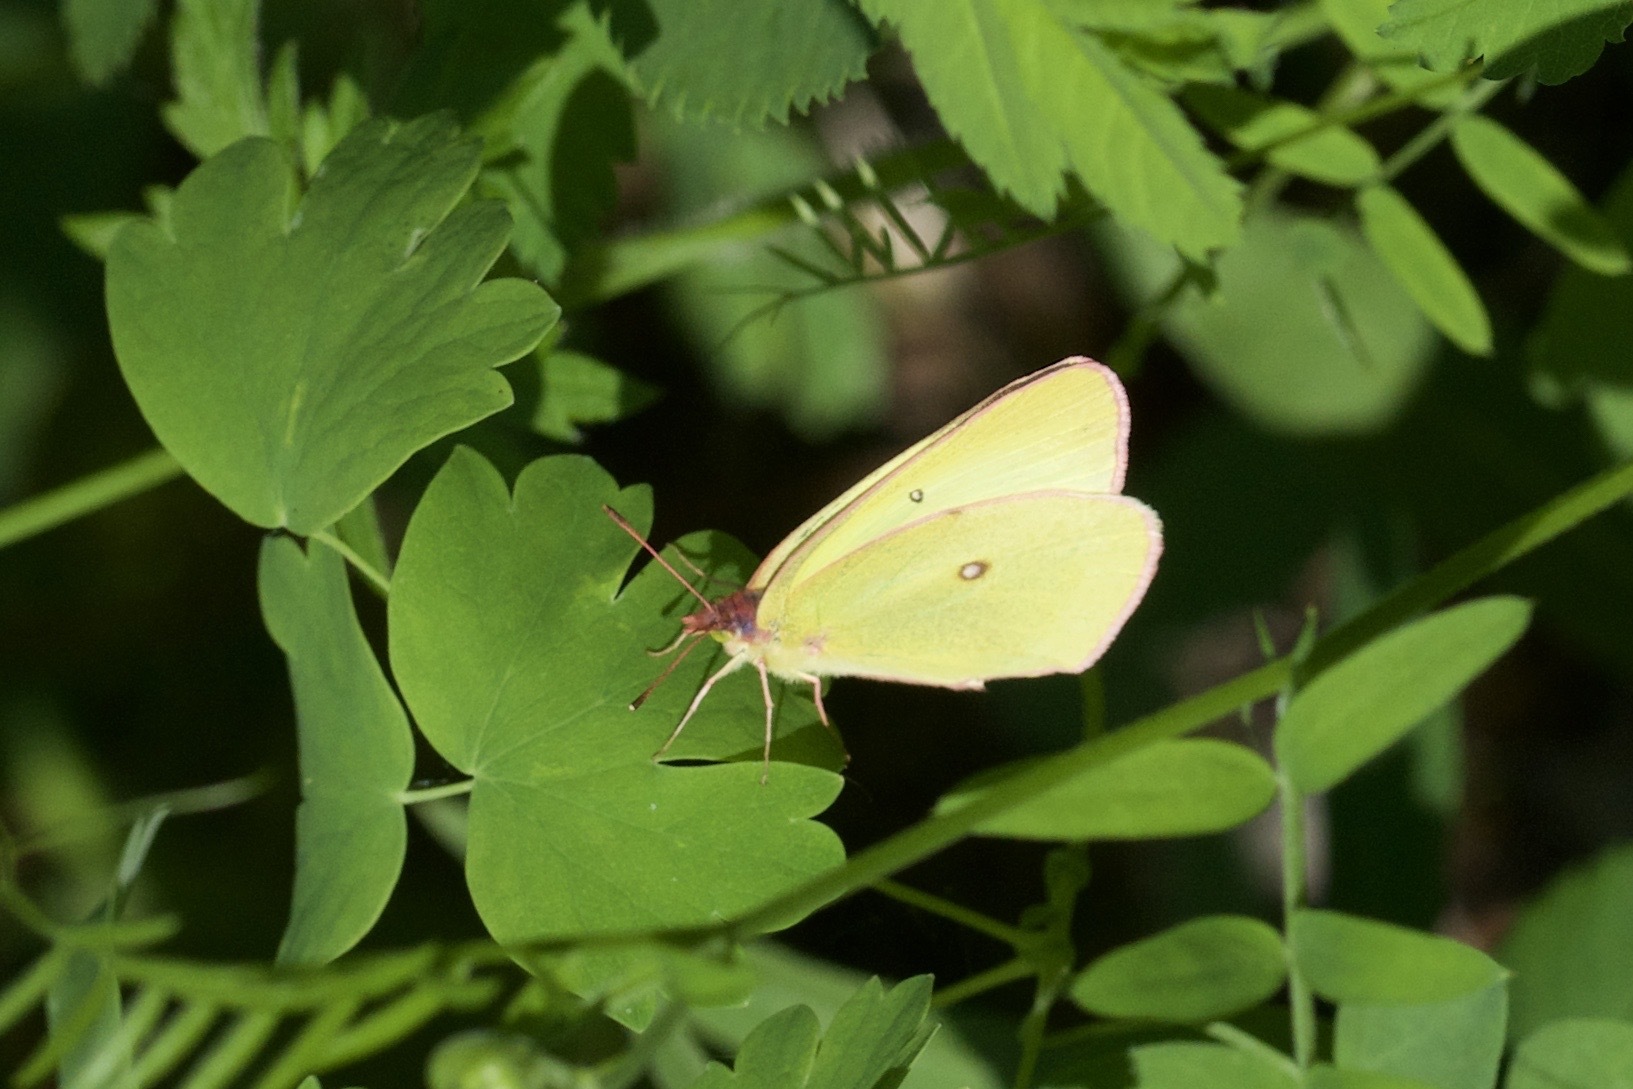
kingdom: Animalia
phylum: Arthropoda
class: Insecta
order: Lepidoptera
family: Pieridae
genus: Colias
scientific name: Colias interior
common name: Pink-edged sulphur
